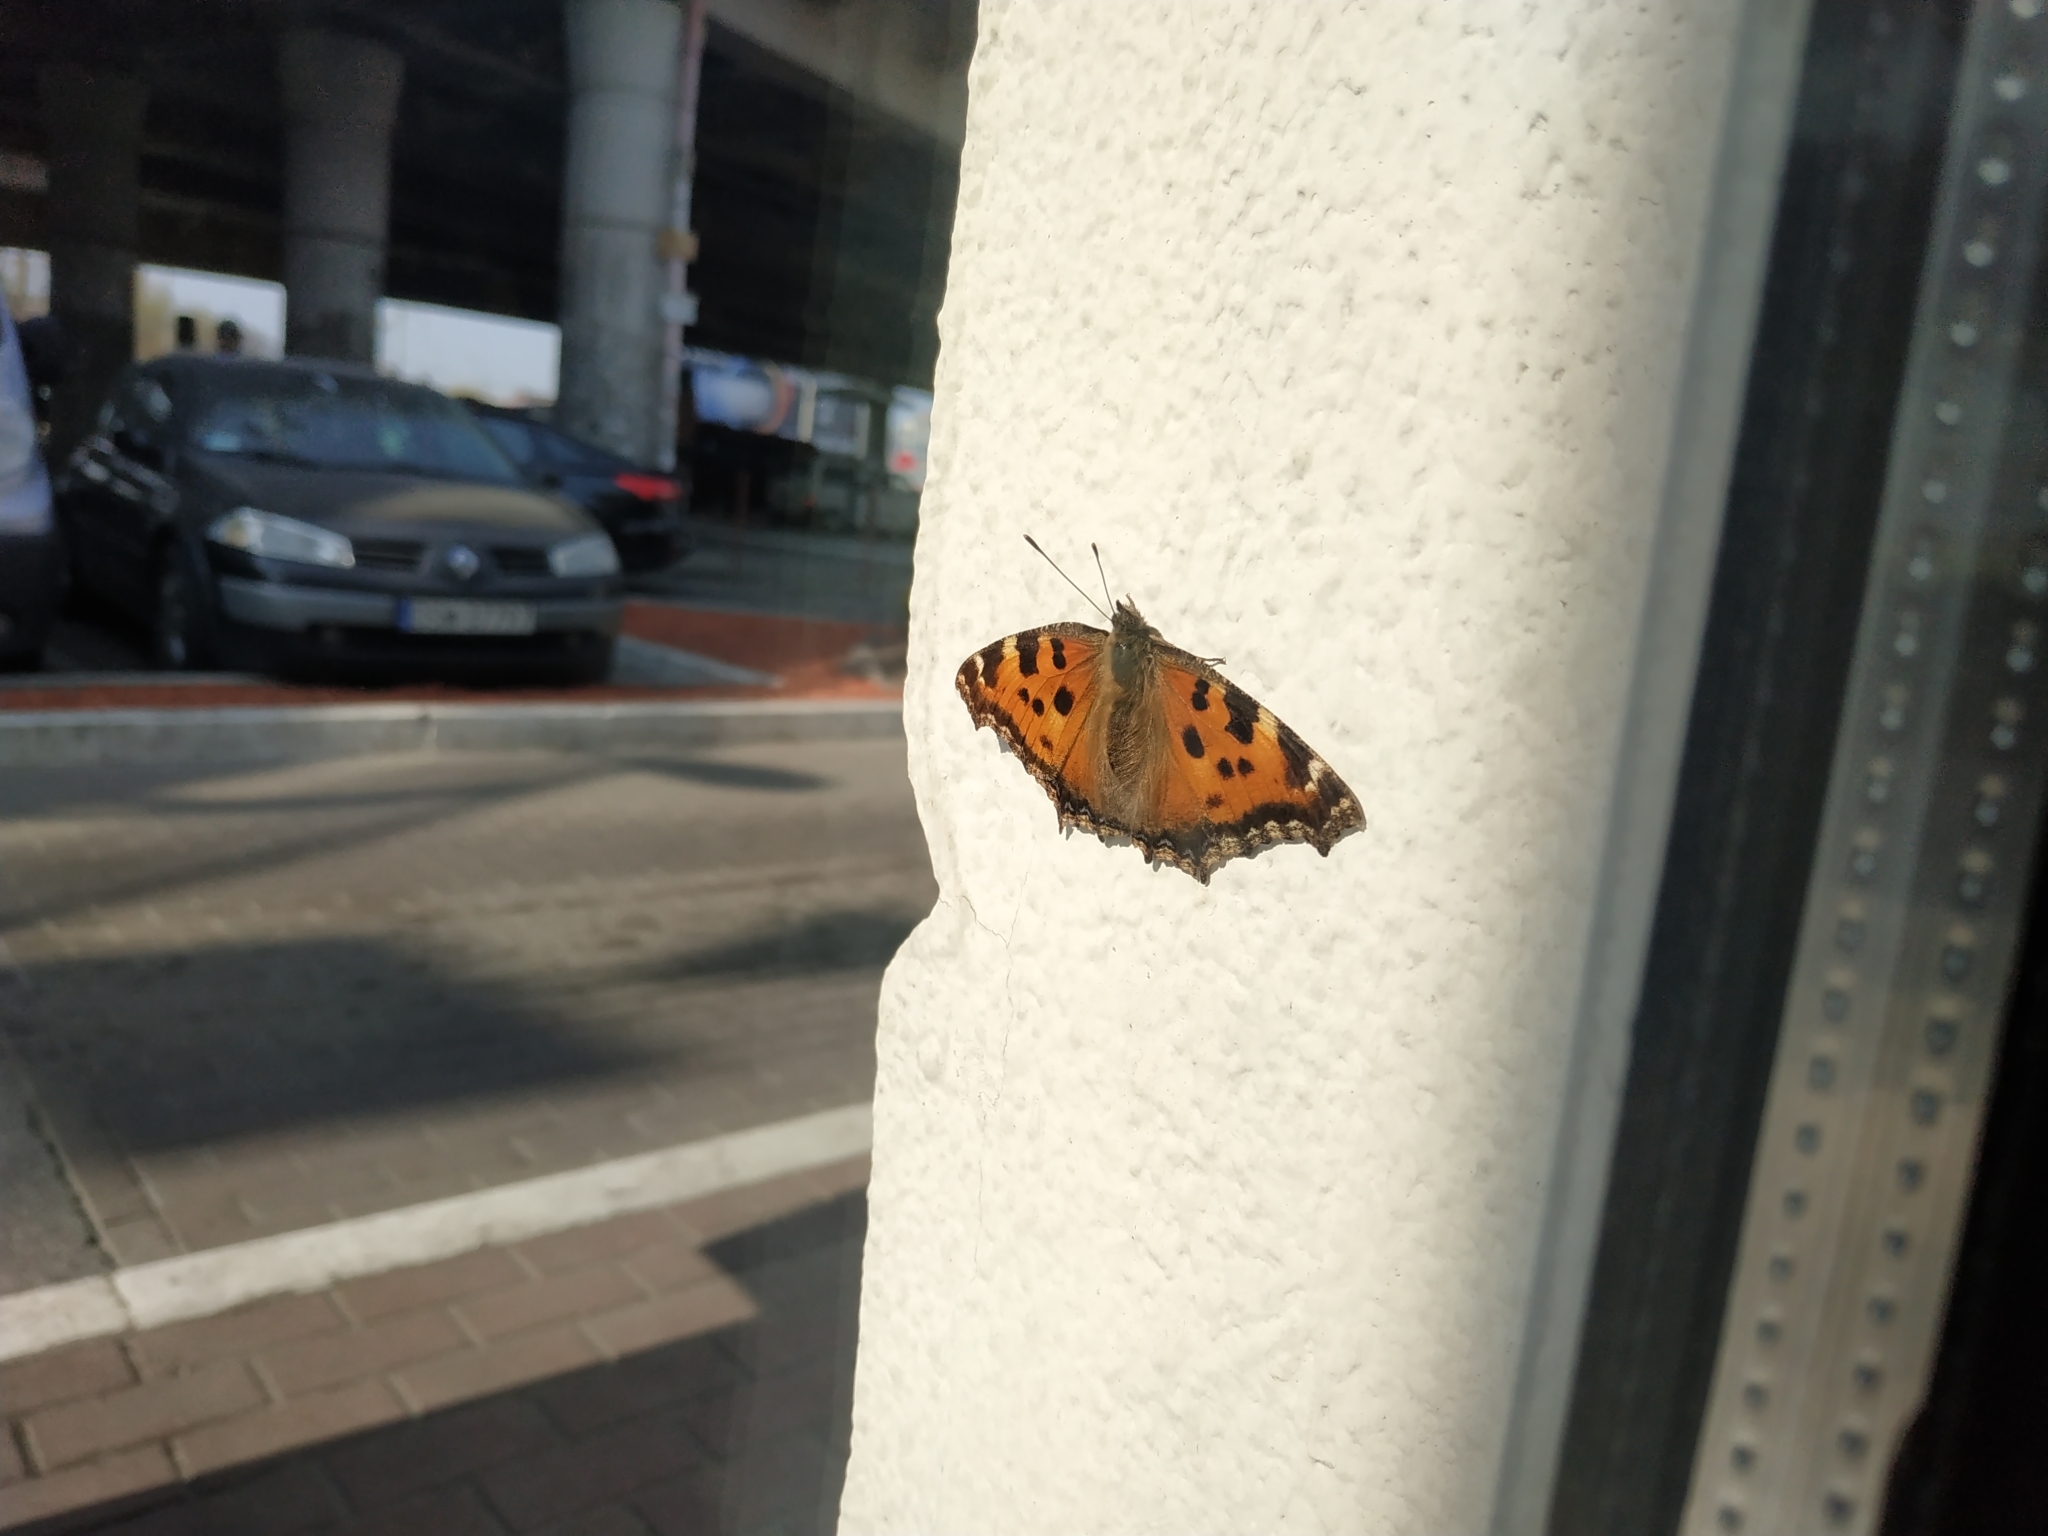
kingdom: Animalia
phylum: Arthropoda
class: Insecta
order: Lepidoptera
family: Nymphalidae
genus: Nymphalis
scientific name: Nymphalis xanthomelas
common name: Scarce tortoiseshell
